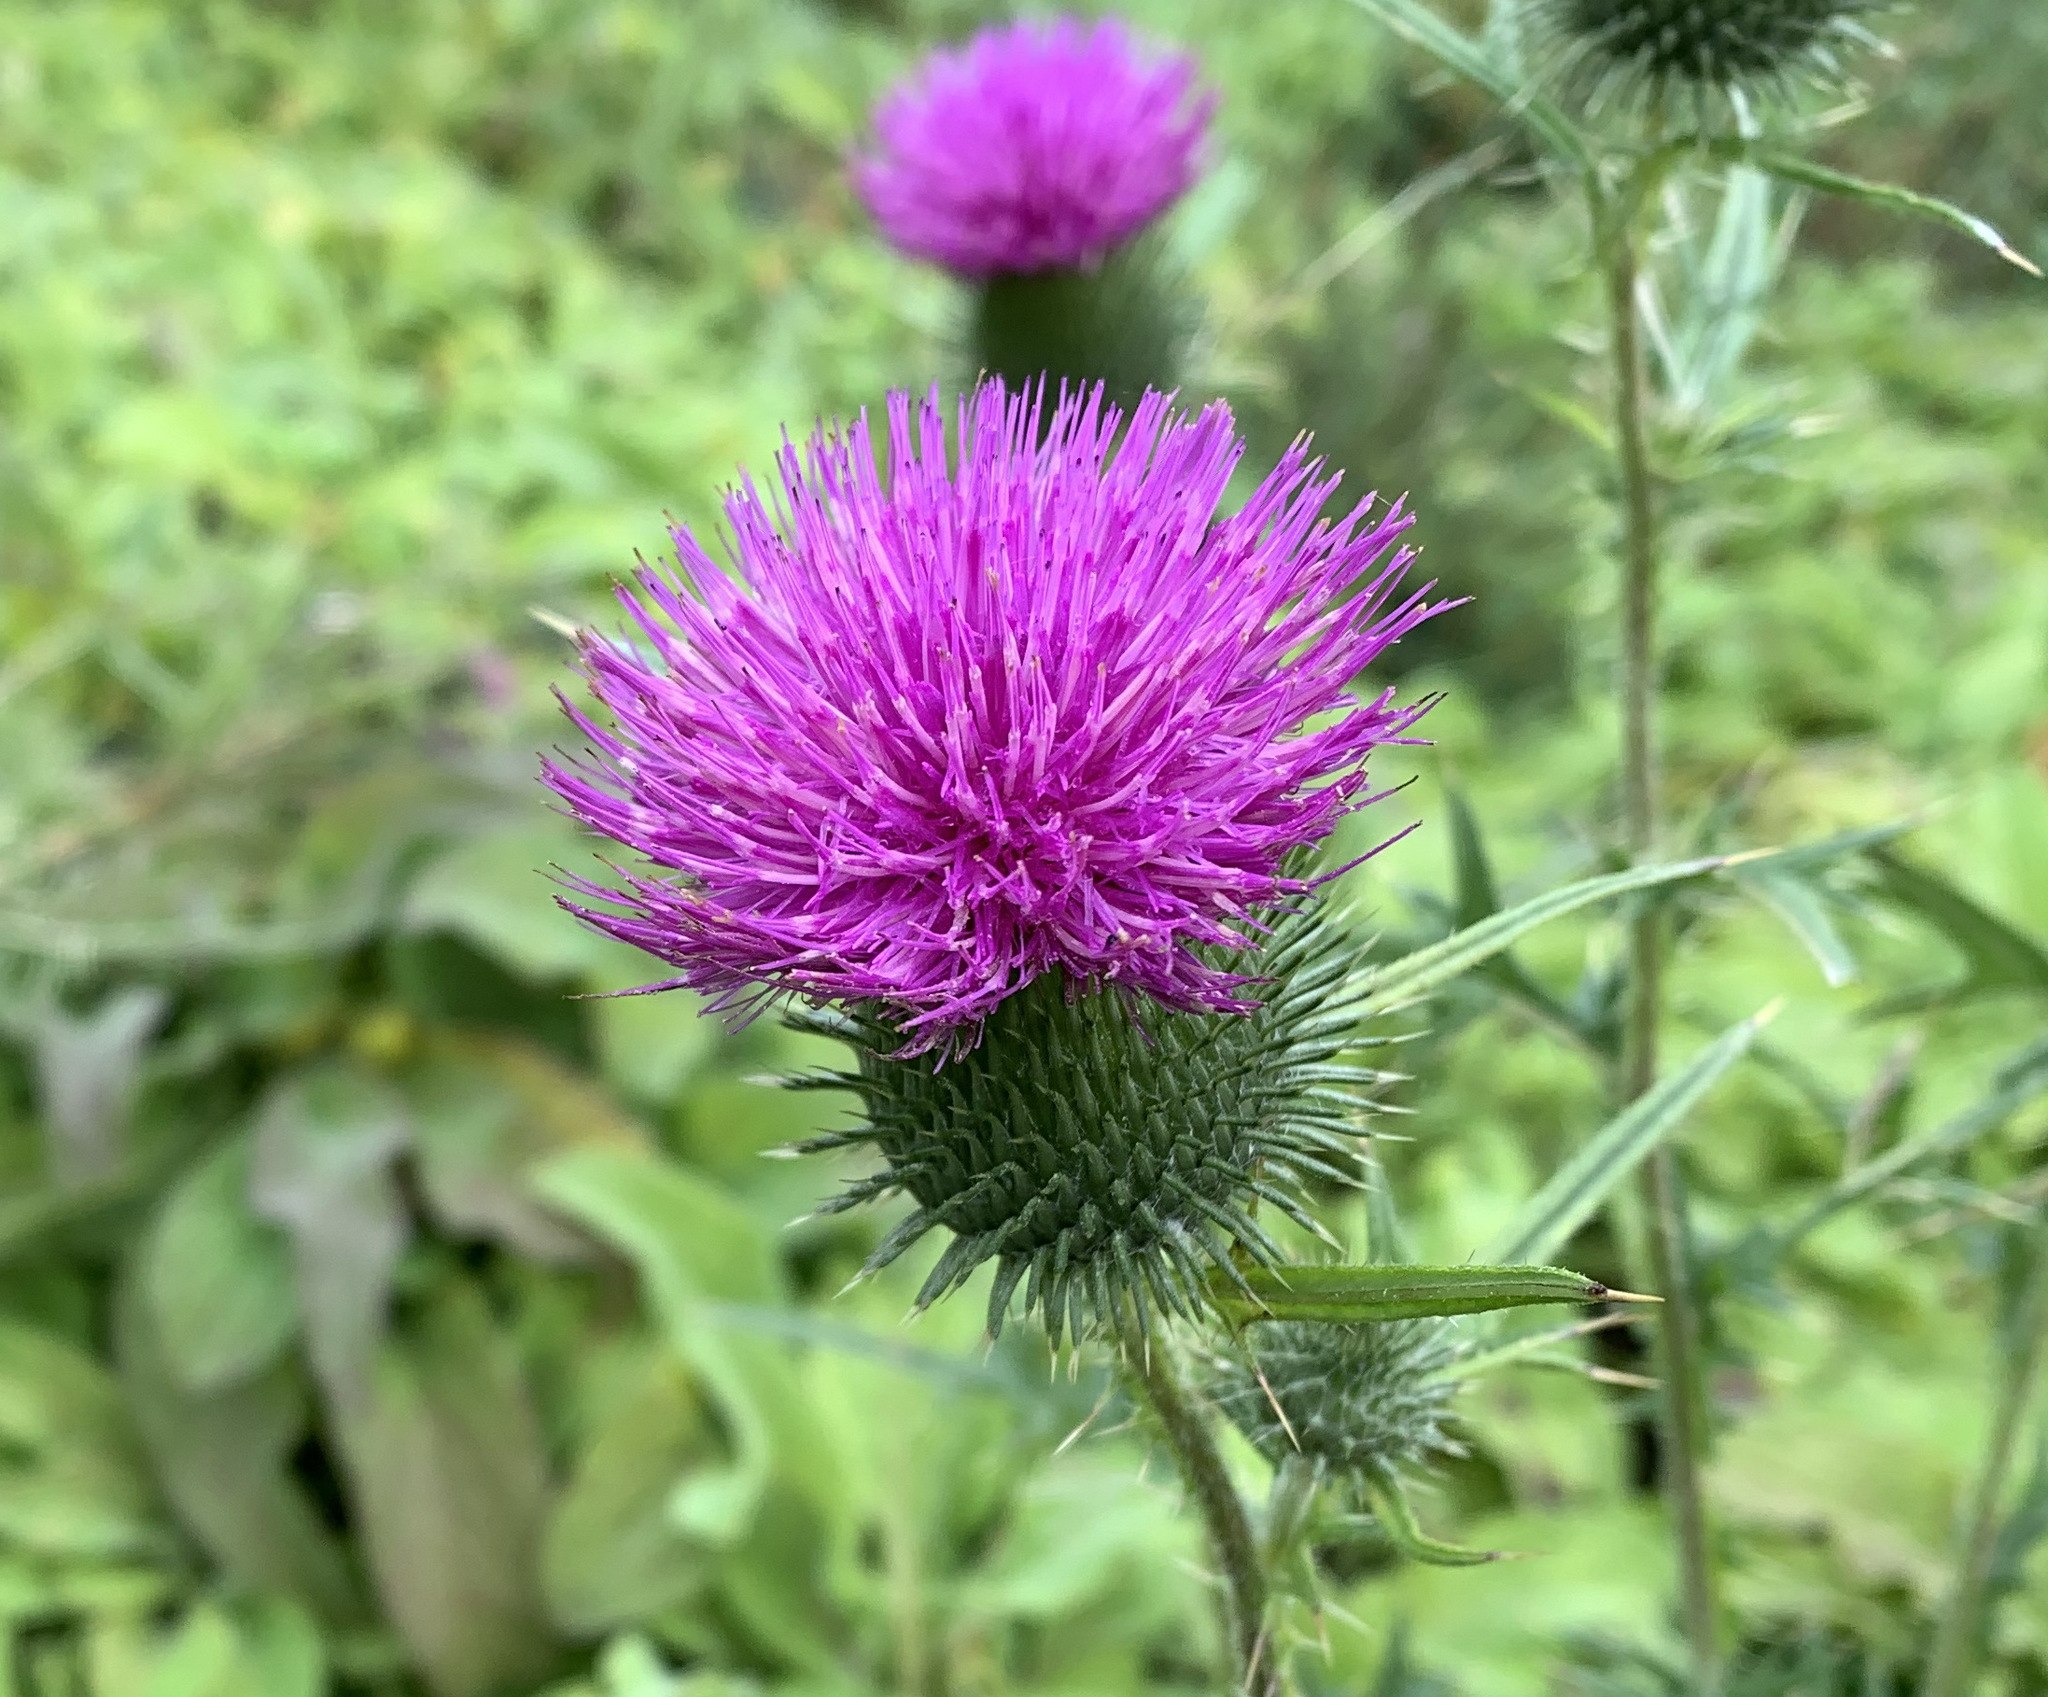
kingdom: Plantae
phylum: Tracheophyta
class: Magnoliopsida
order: Asterales
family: Asteraceae
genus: Cirsium
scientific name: Cirsium vulgare
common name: Bull thistle
